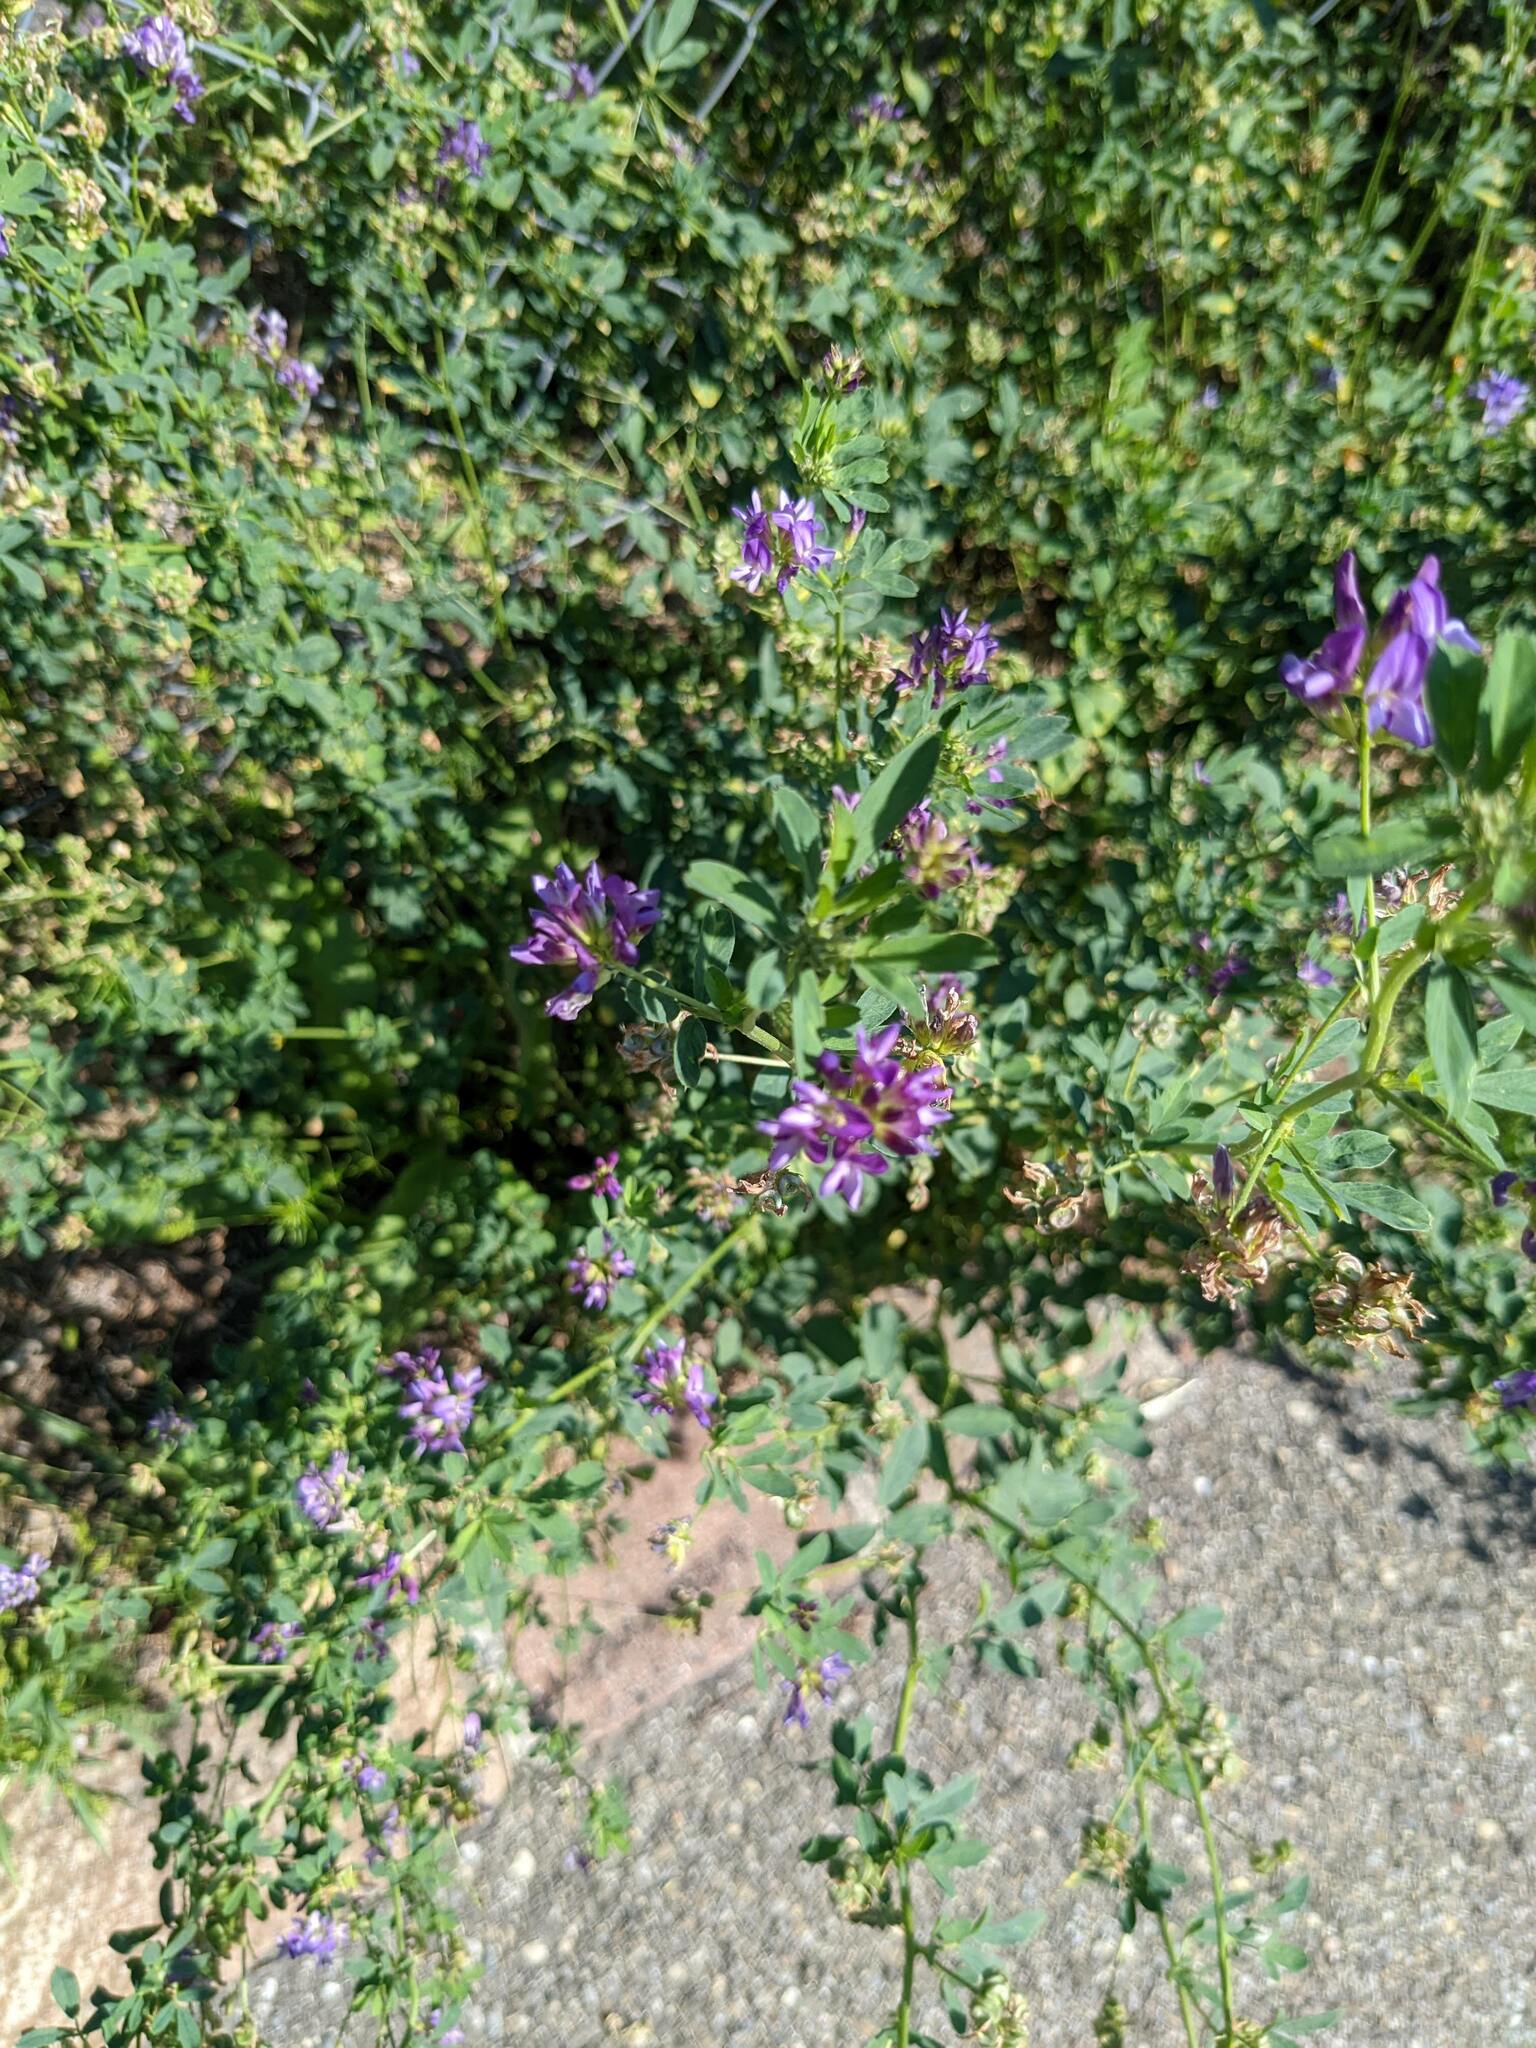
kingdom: Plantae
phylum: Tracheophyta
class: Magnoliopsida
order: Fabales
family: Fabaceae
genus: Medicago
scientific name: Medicago sativa
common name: Alfalfa
